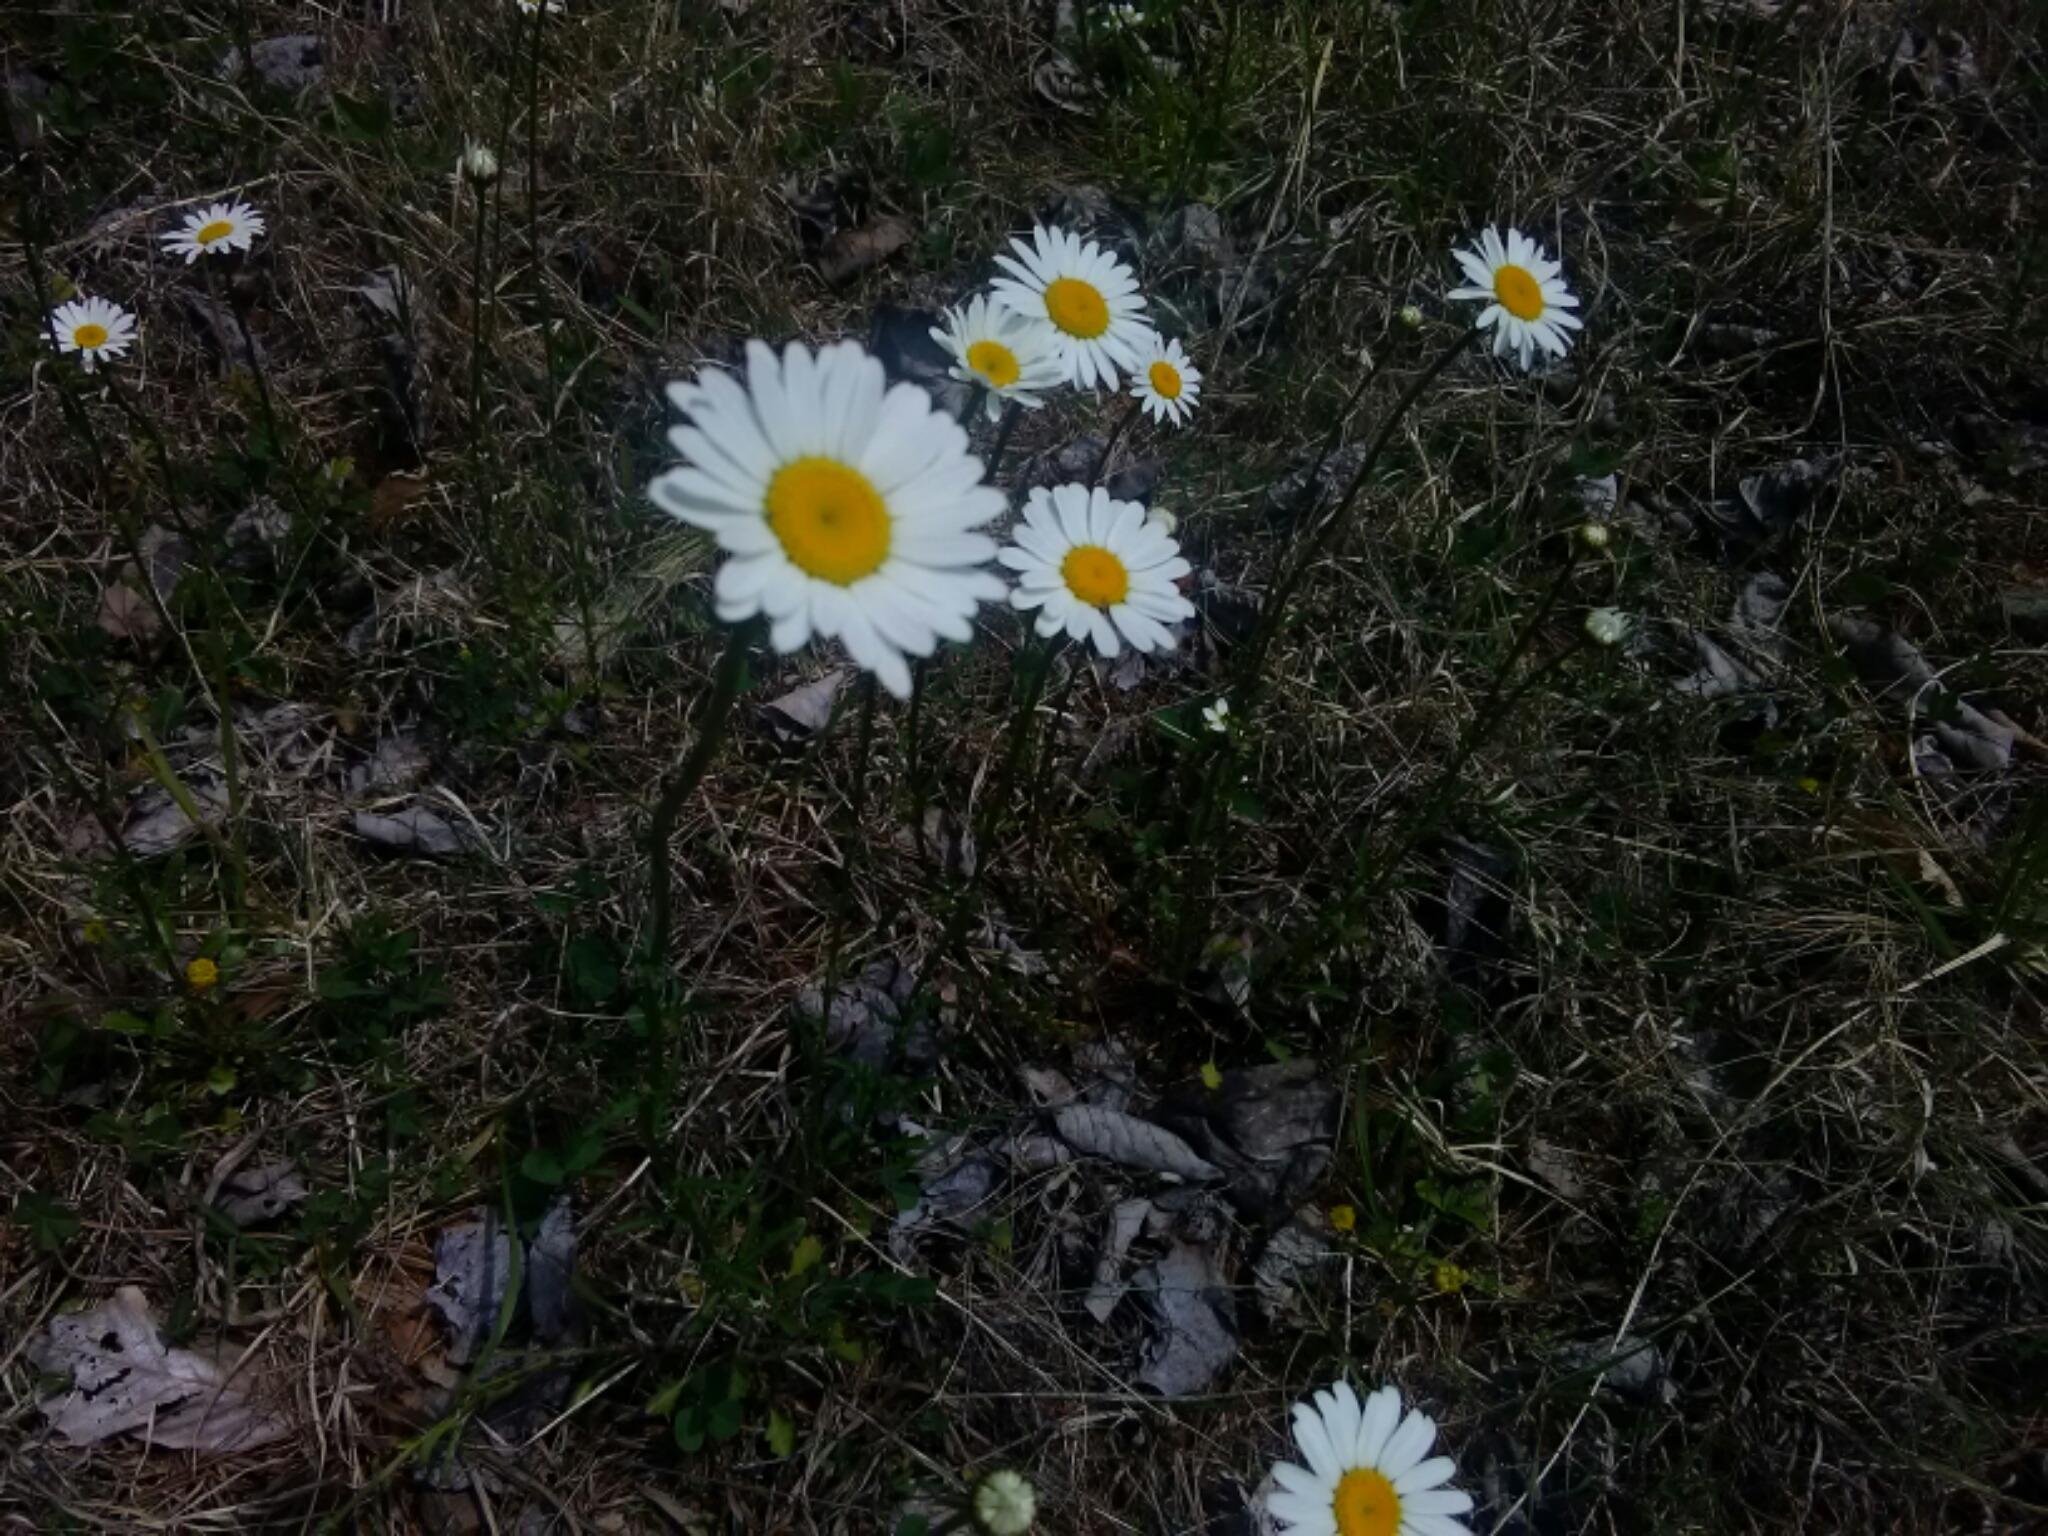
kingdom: Plantae
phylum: Tracheophyta
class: Magnoliopsida
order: Asterales
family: Asteraceae
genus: Leucanthemum
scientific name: Leucanthemum vulgare
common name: Oxeye daisy
